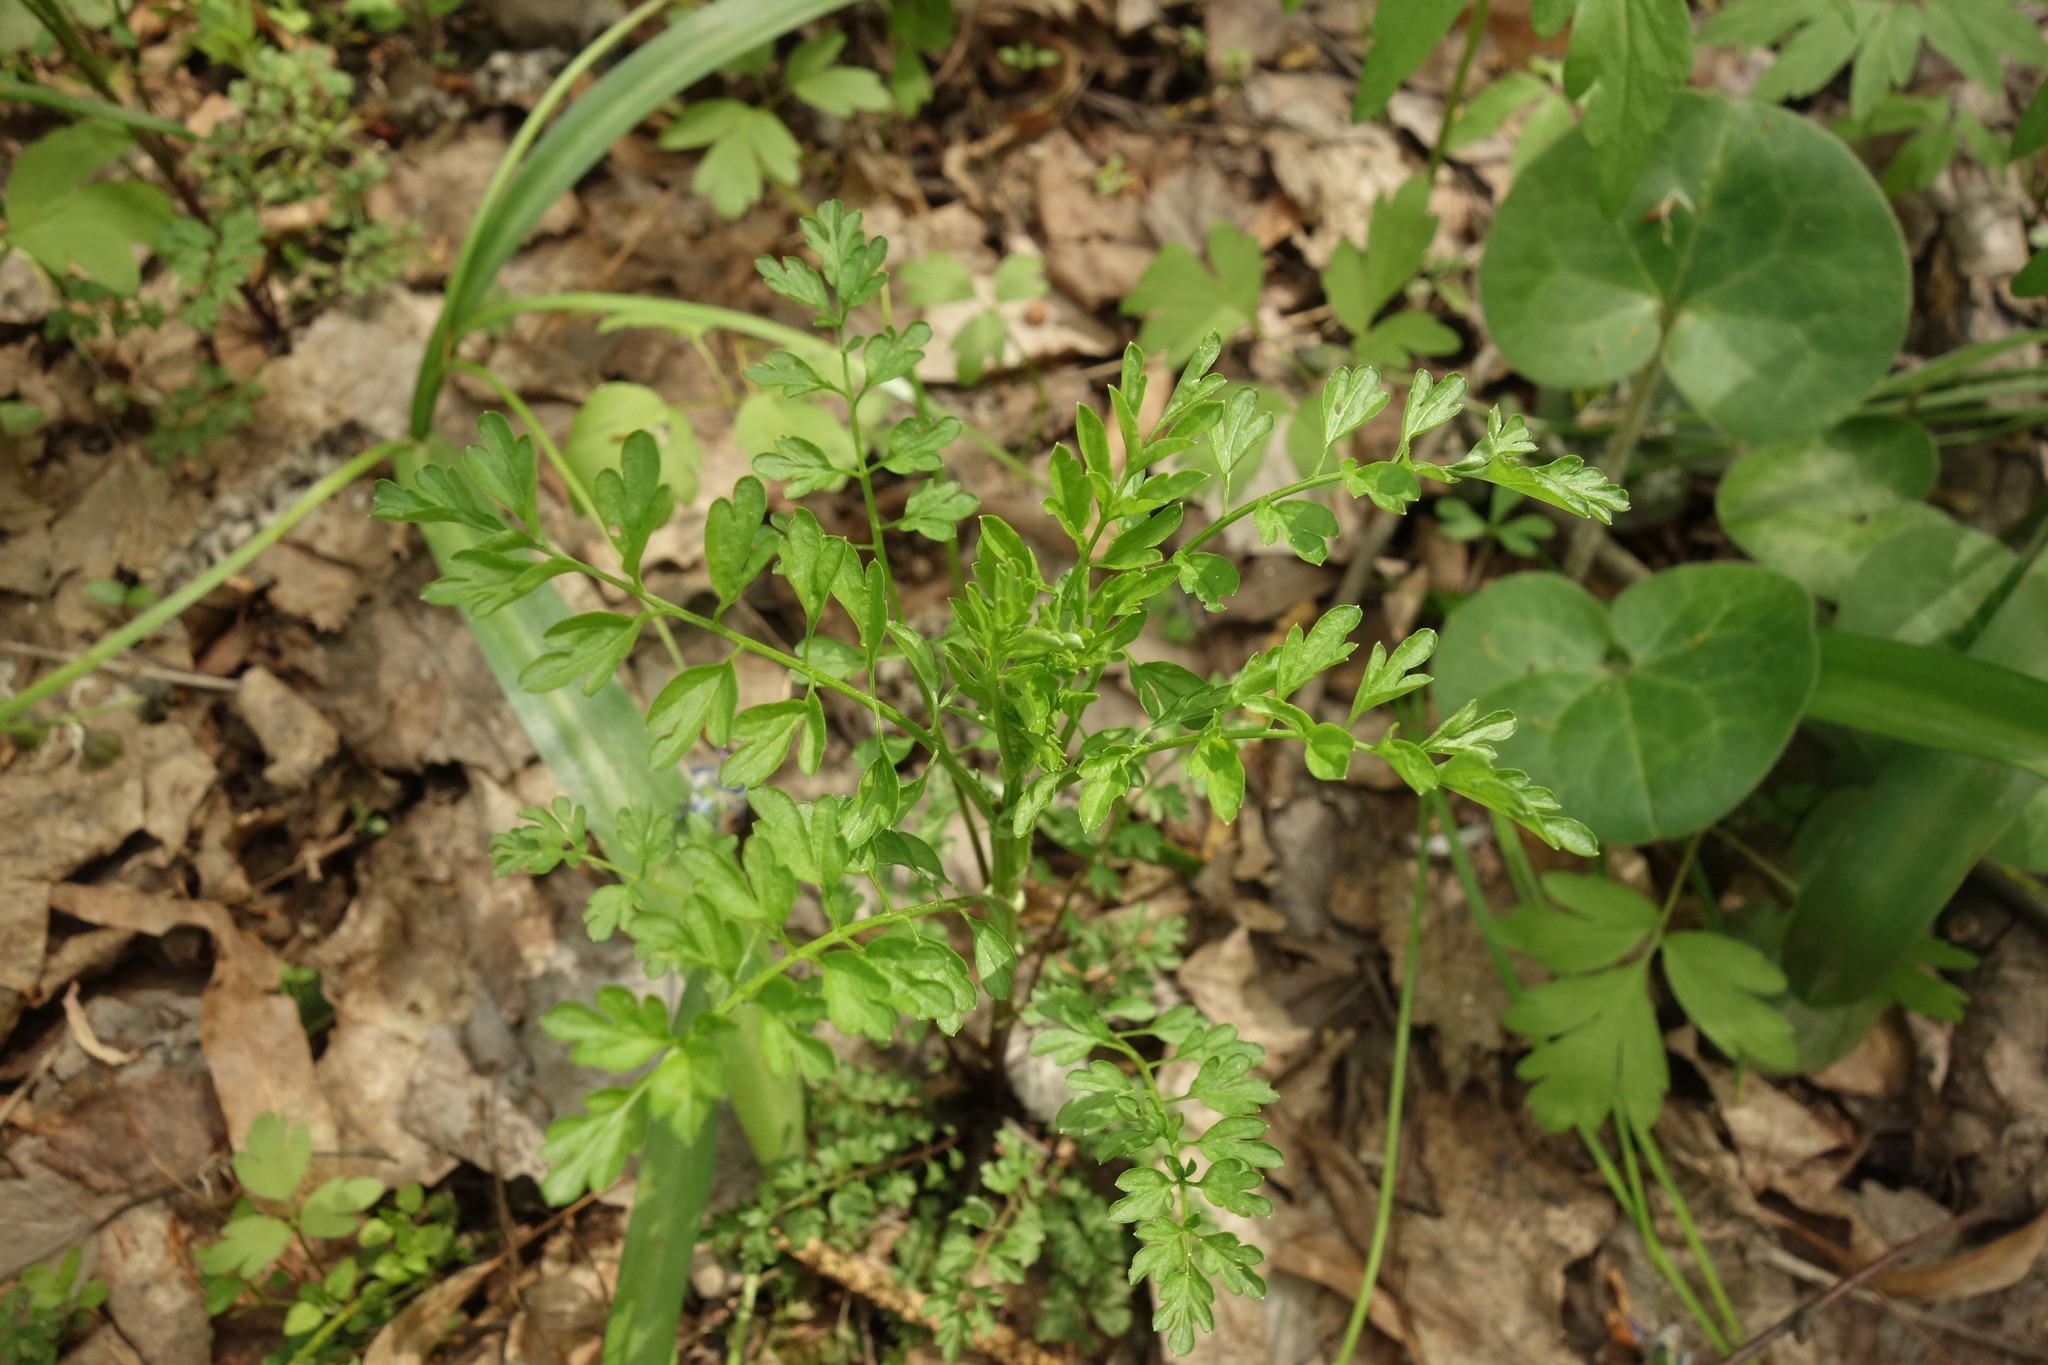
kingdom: Plantae
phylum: Tracheophyta
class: Magnoliopsida
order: Brassicales
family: Brassicaceae
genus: Cardamine
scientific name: Cardamine impatiens
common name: Narrow-leaved bitter-cress
